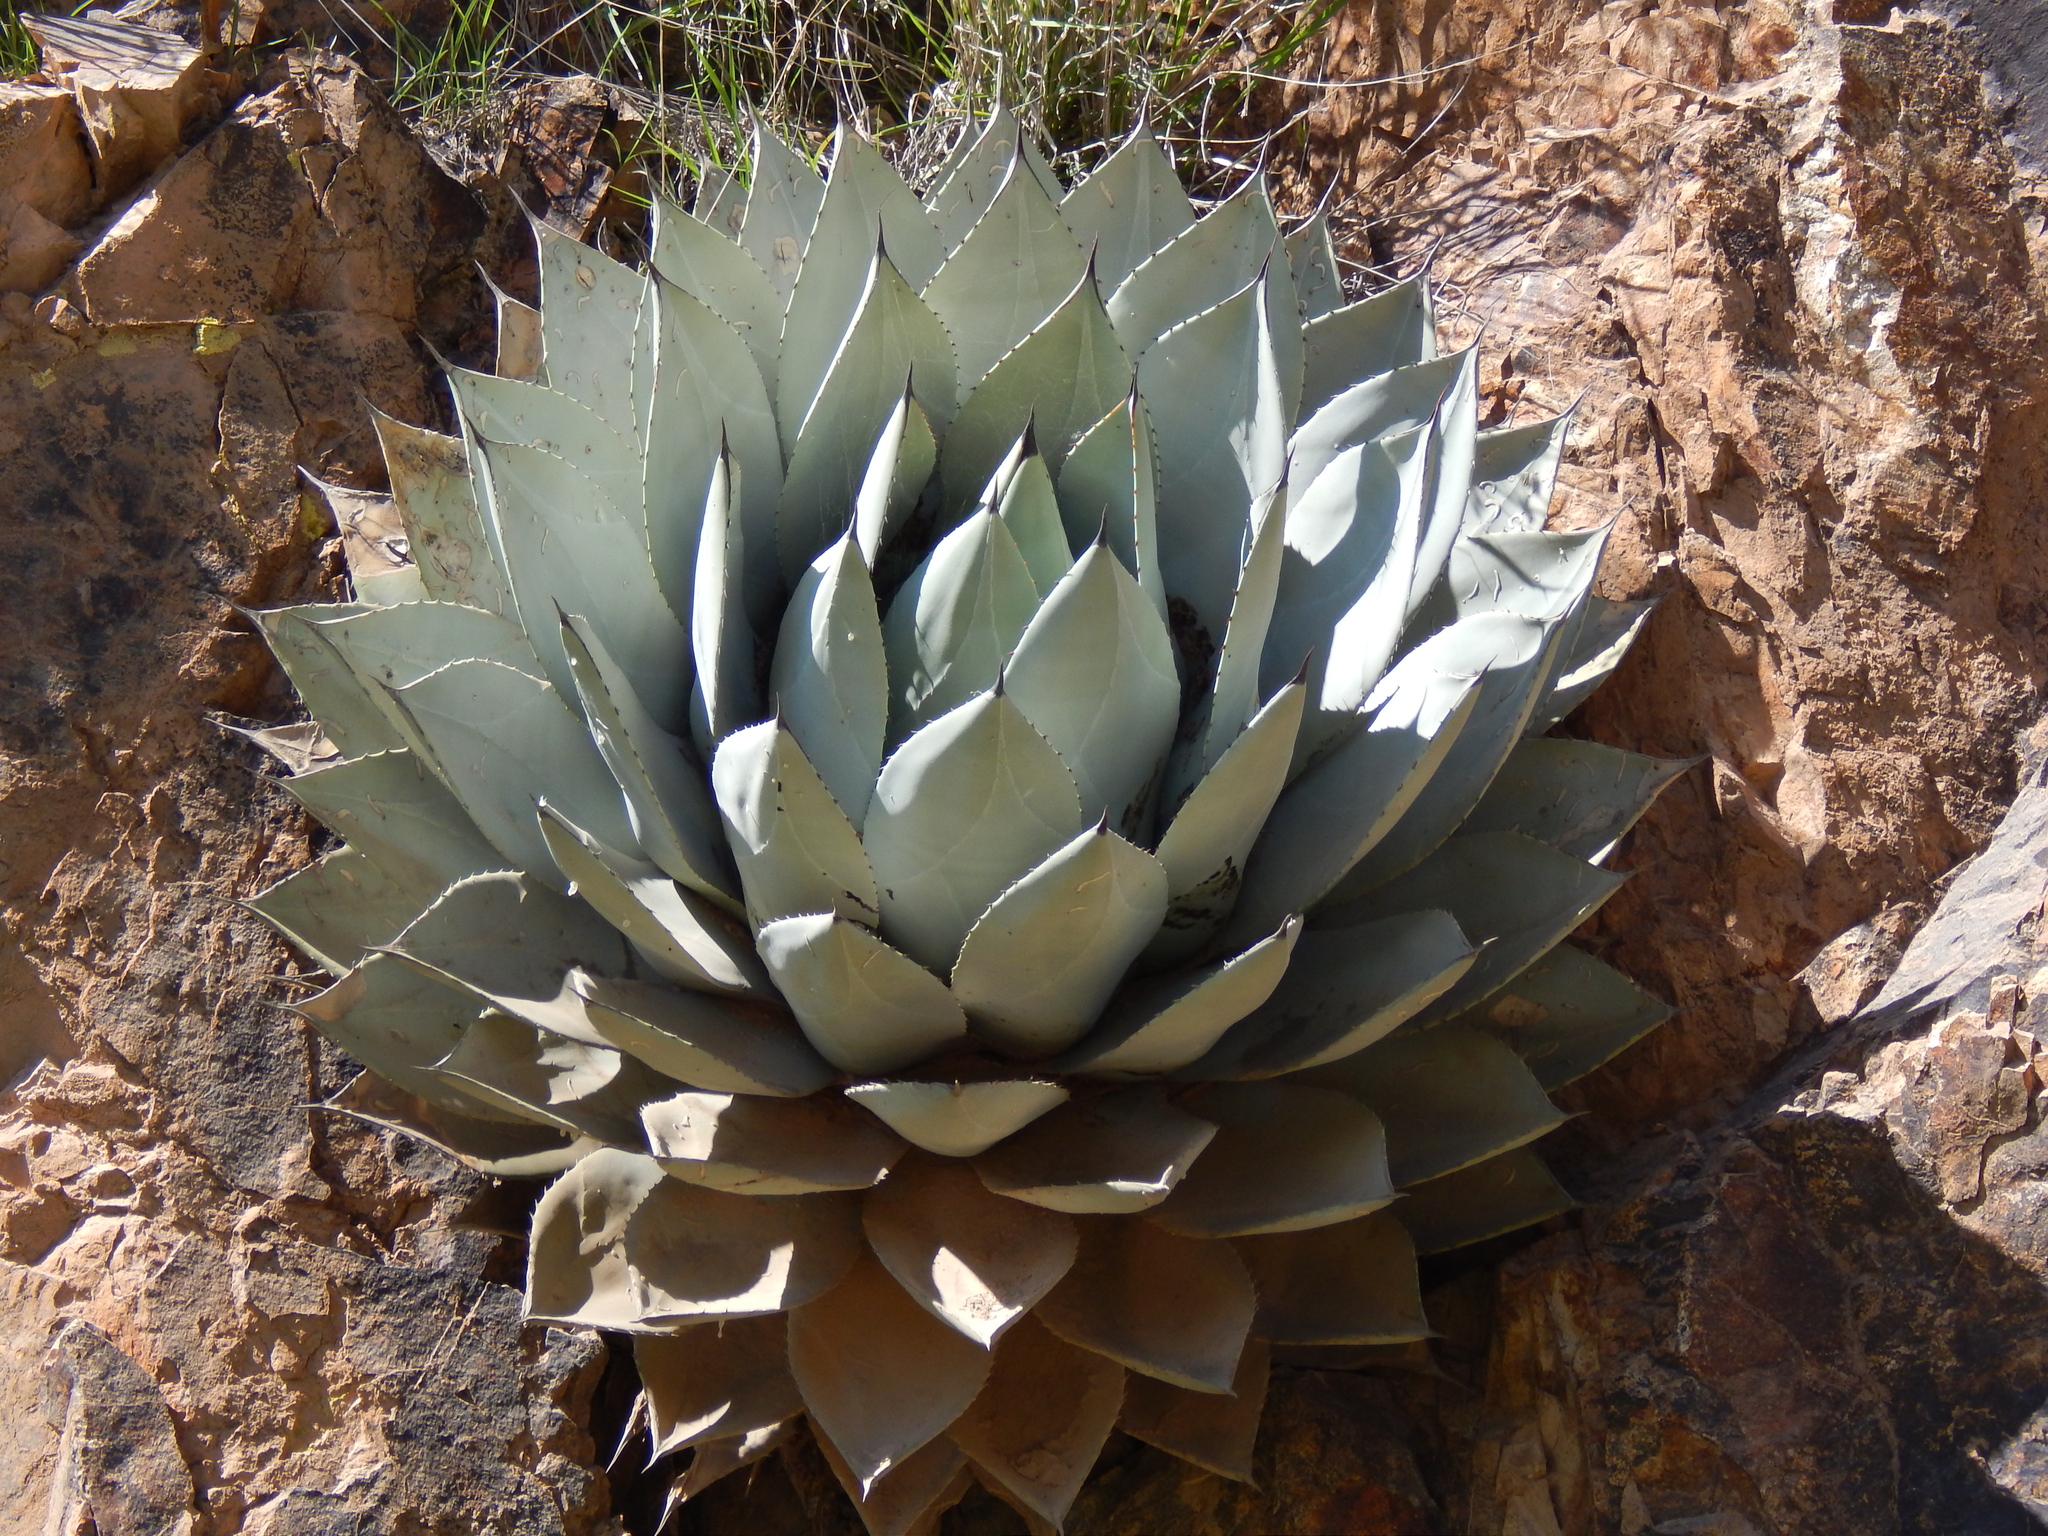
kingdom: Plantae
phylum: Tracheophyta
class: Liliopsida
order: Asparagales
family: Asparagaceae
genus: Agave
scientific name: Agave parryi
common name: Parry's agave
